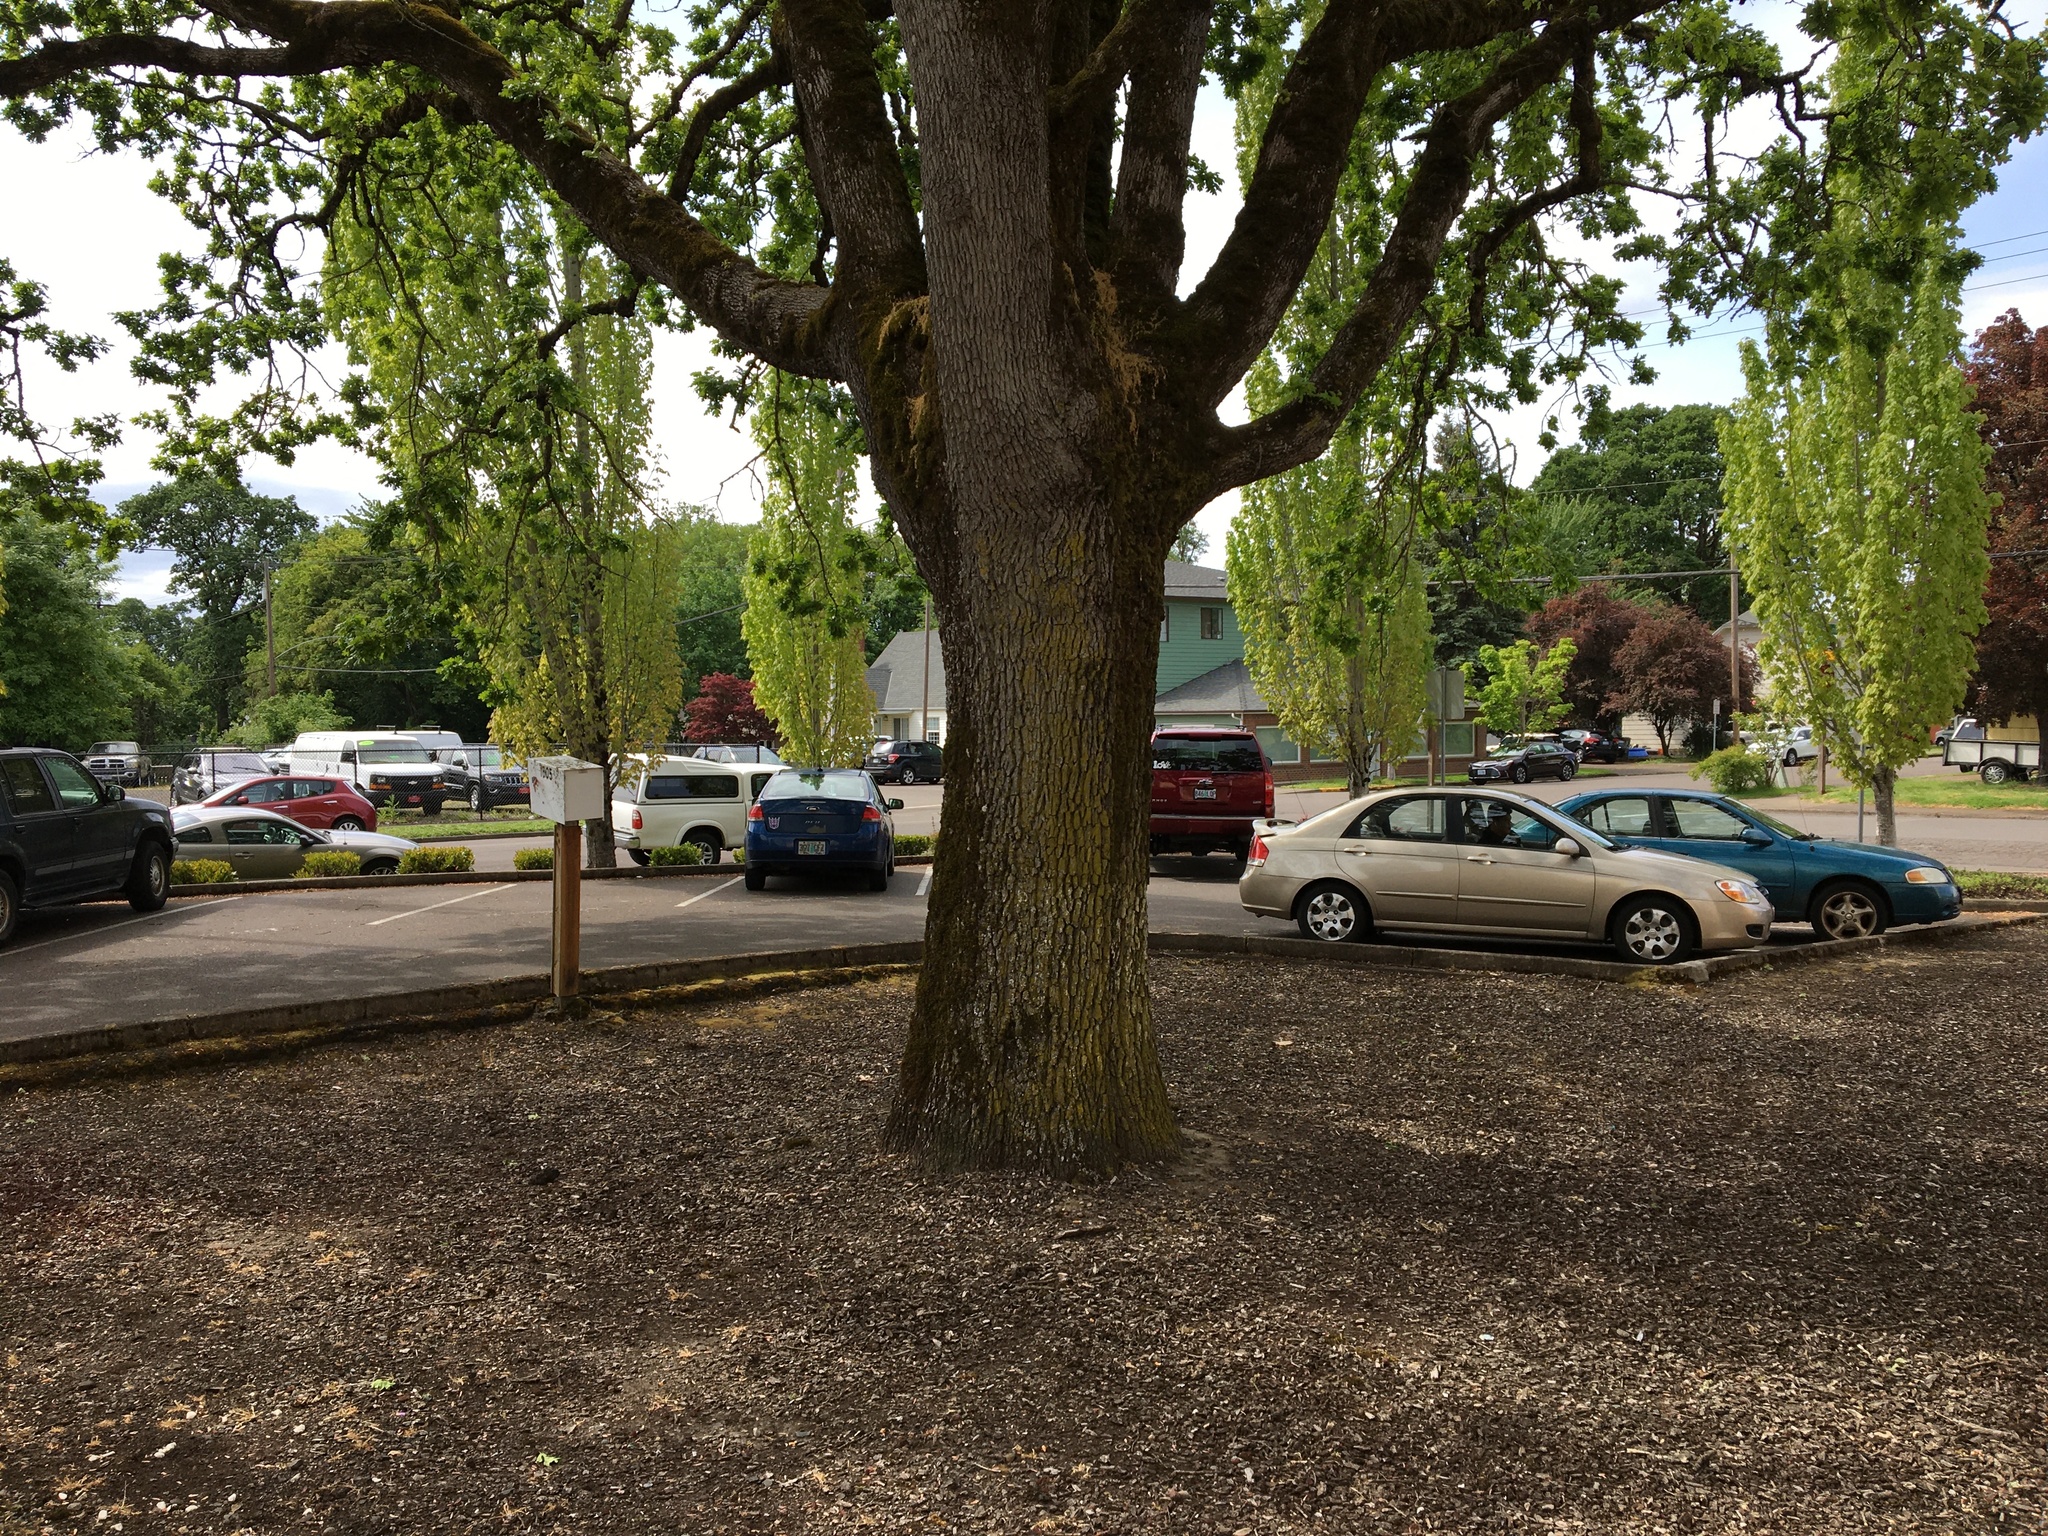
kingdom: Plantae
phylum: Tracheophyta
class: Magnoliopsida
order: Fagales
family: Fagaceae
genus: Quercus
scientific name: Quercus garryana
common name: Garry oak
